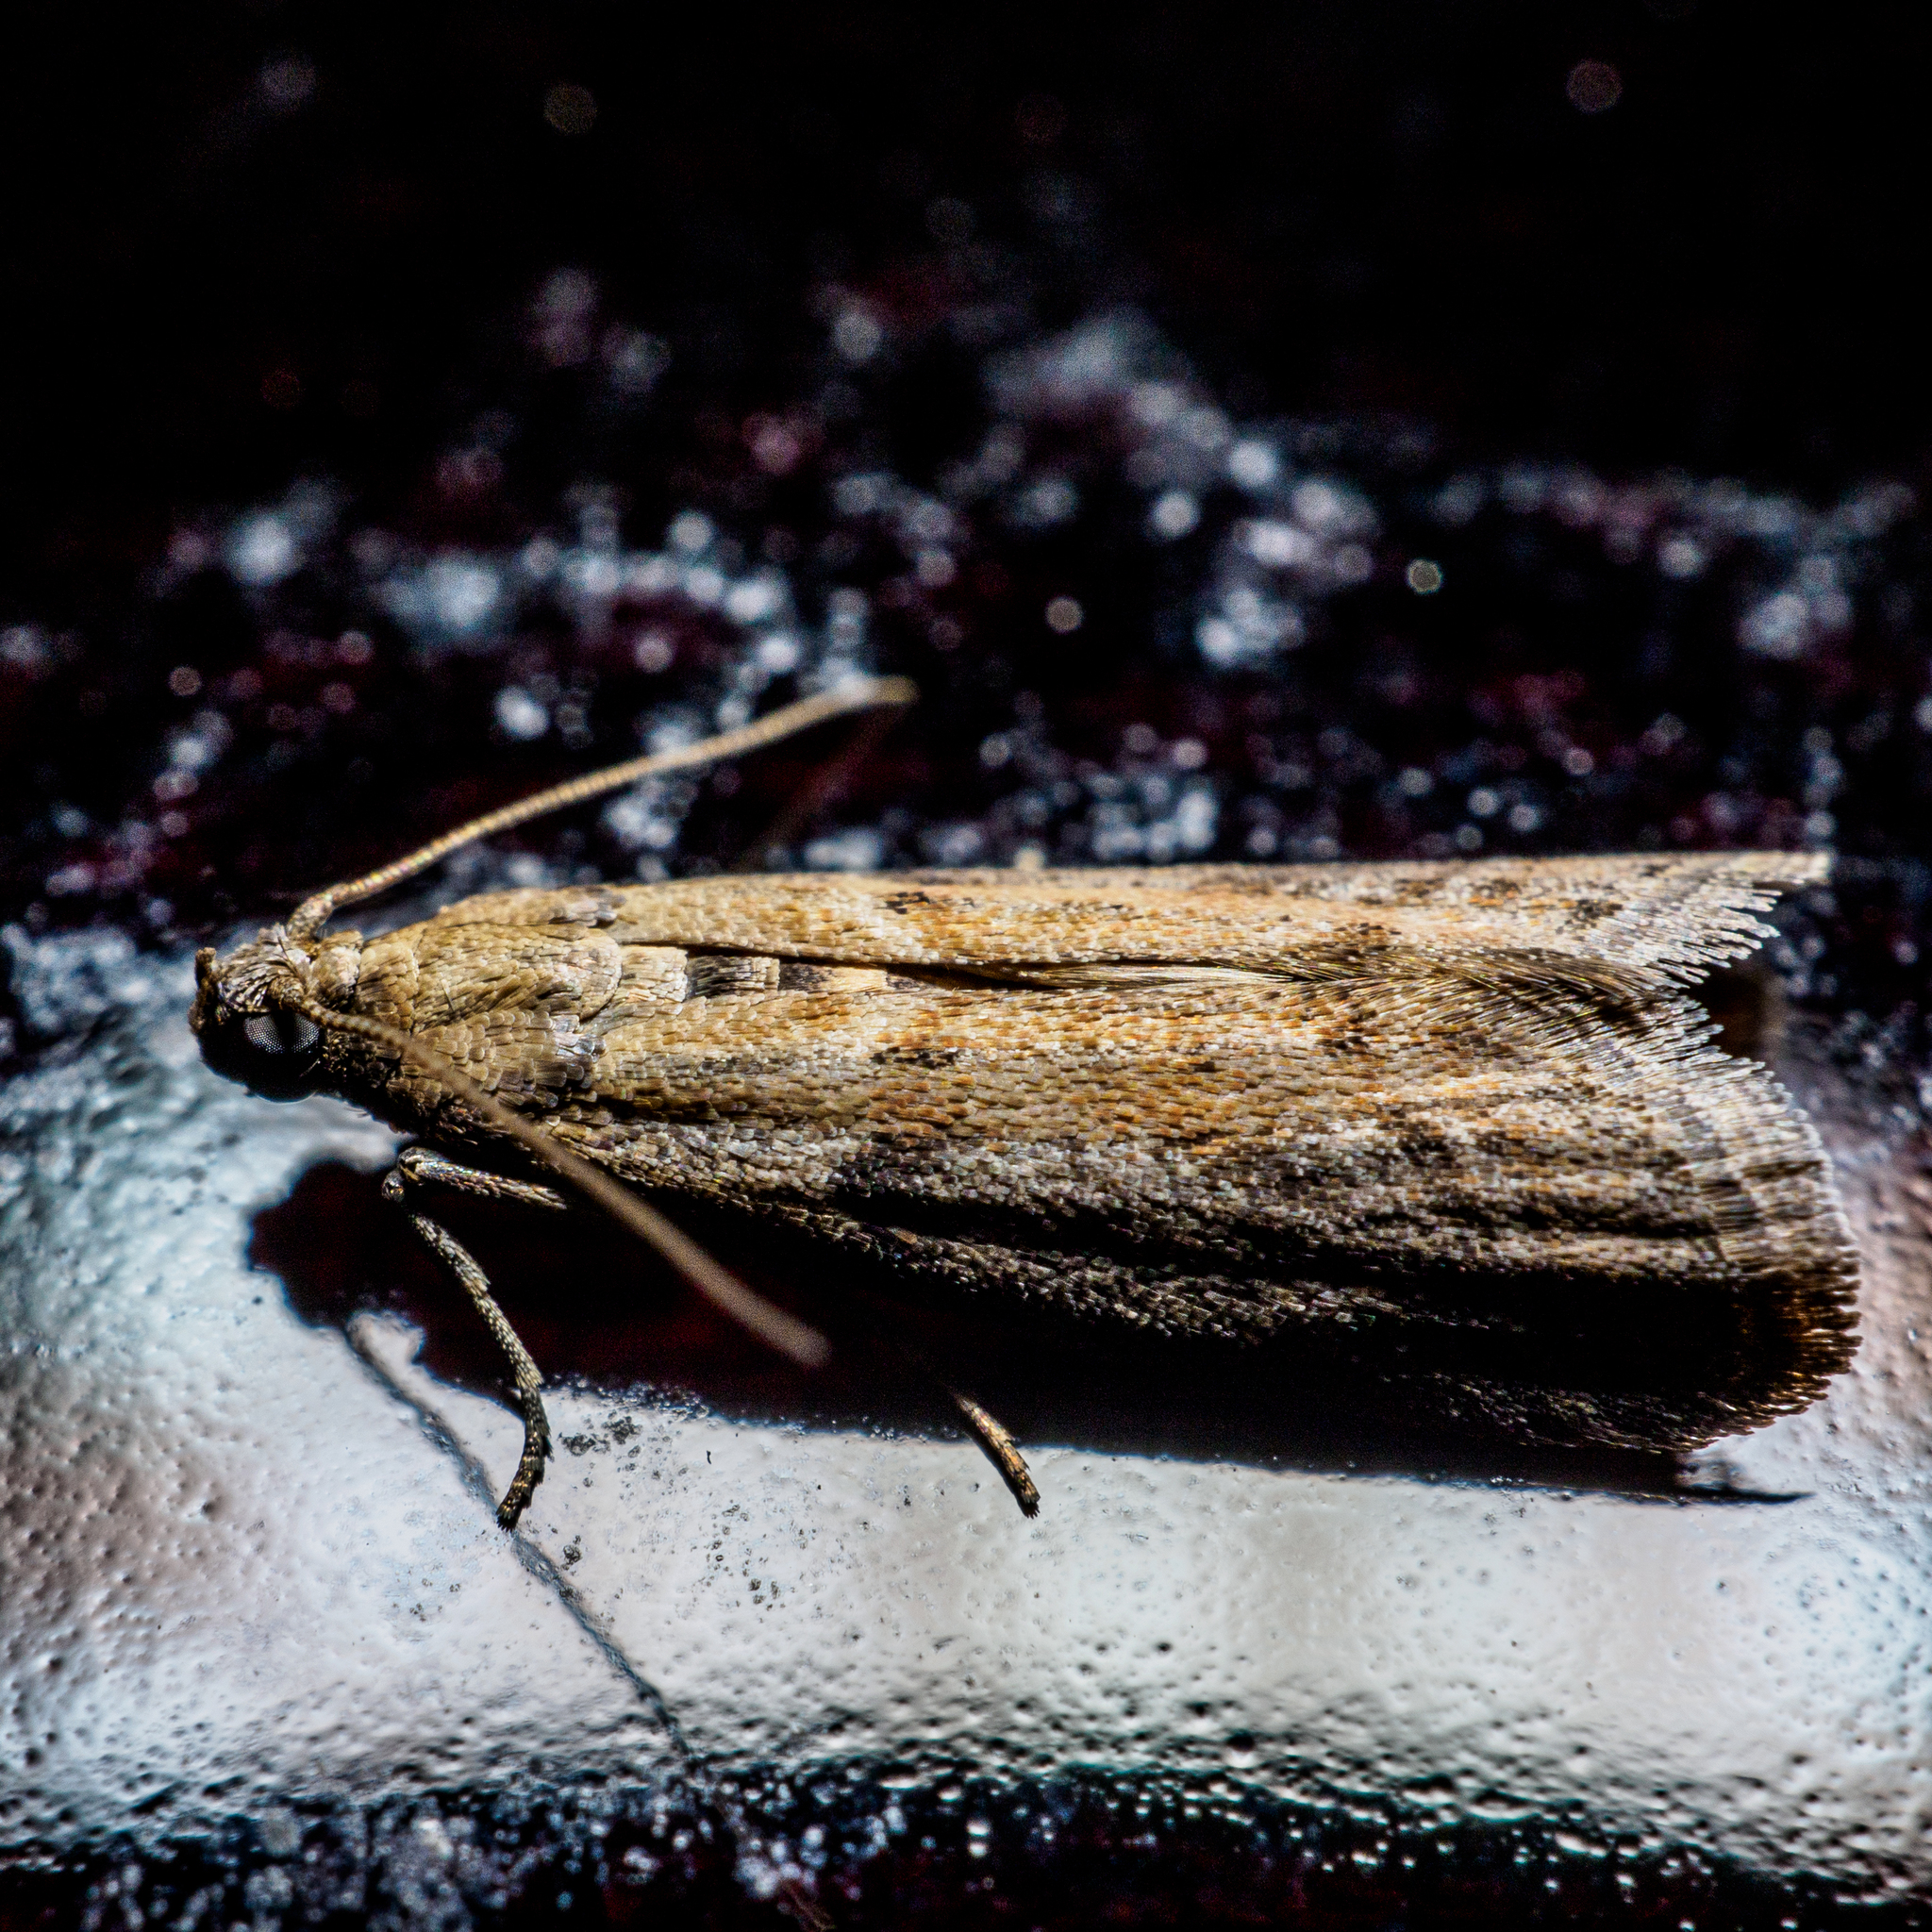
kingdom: Animalia
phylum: Arthropoda
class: Insecta
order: Lepidoptera
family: Pyralidae
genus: Ephestia
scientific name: Ephestia elutella
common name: Cacao moth
